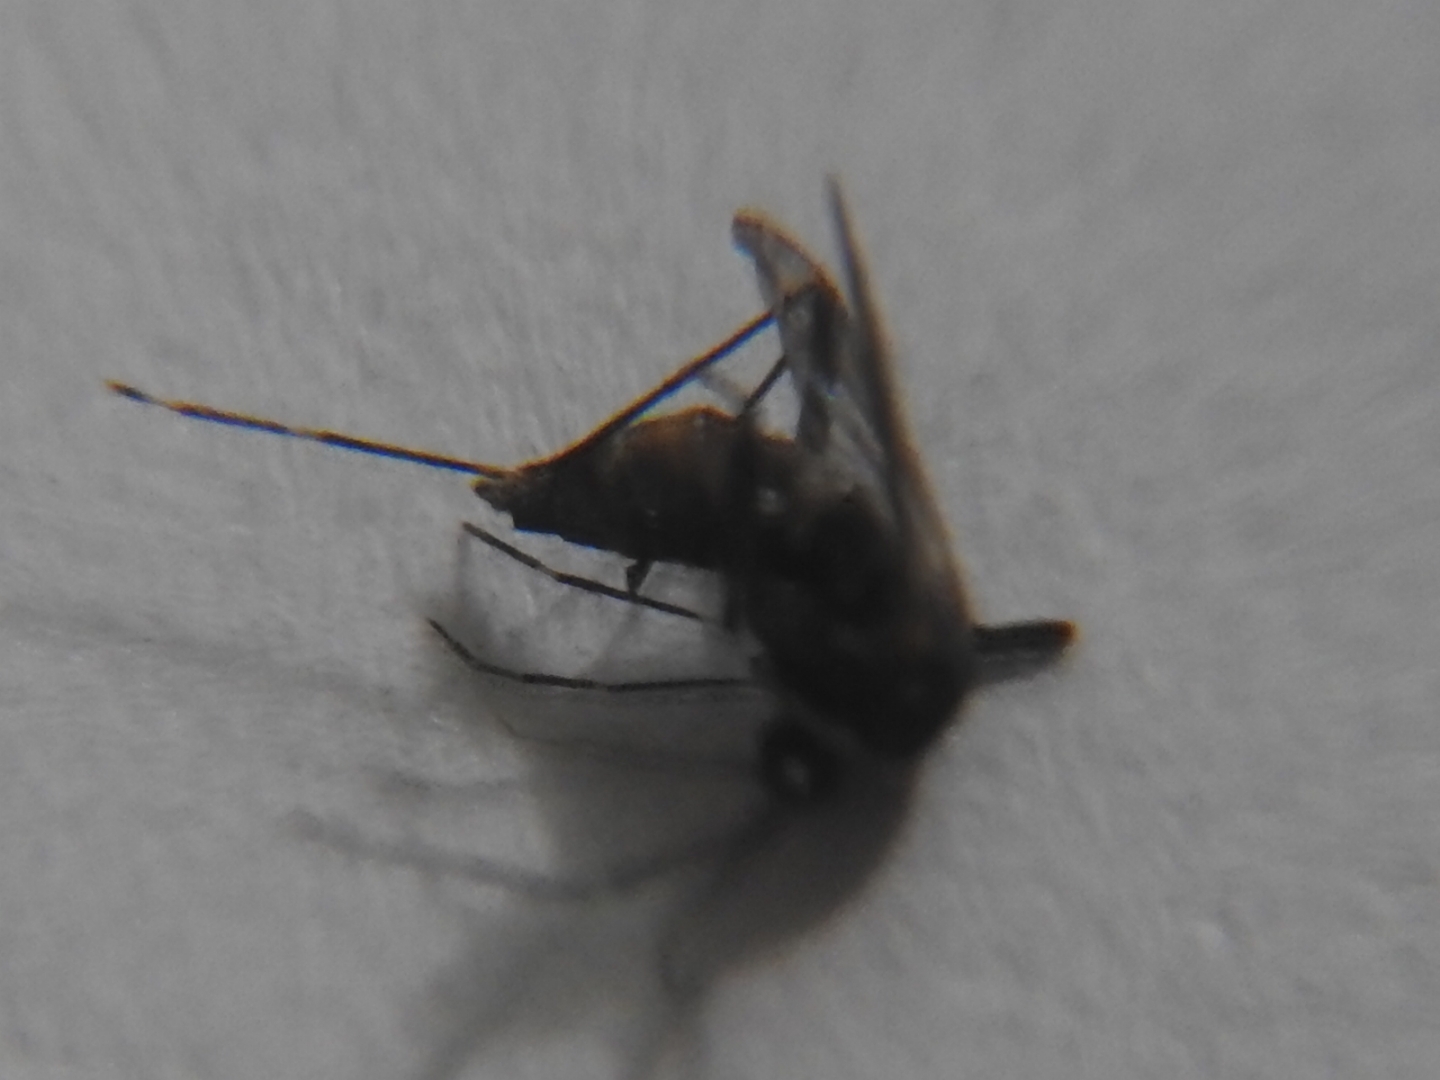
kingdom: Animalia
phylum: Arthropoda
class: Insecta
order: Diptera
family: Culicidae
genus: Aedes
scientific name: Aedes aegypti
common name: Yellow fever mosquito
